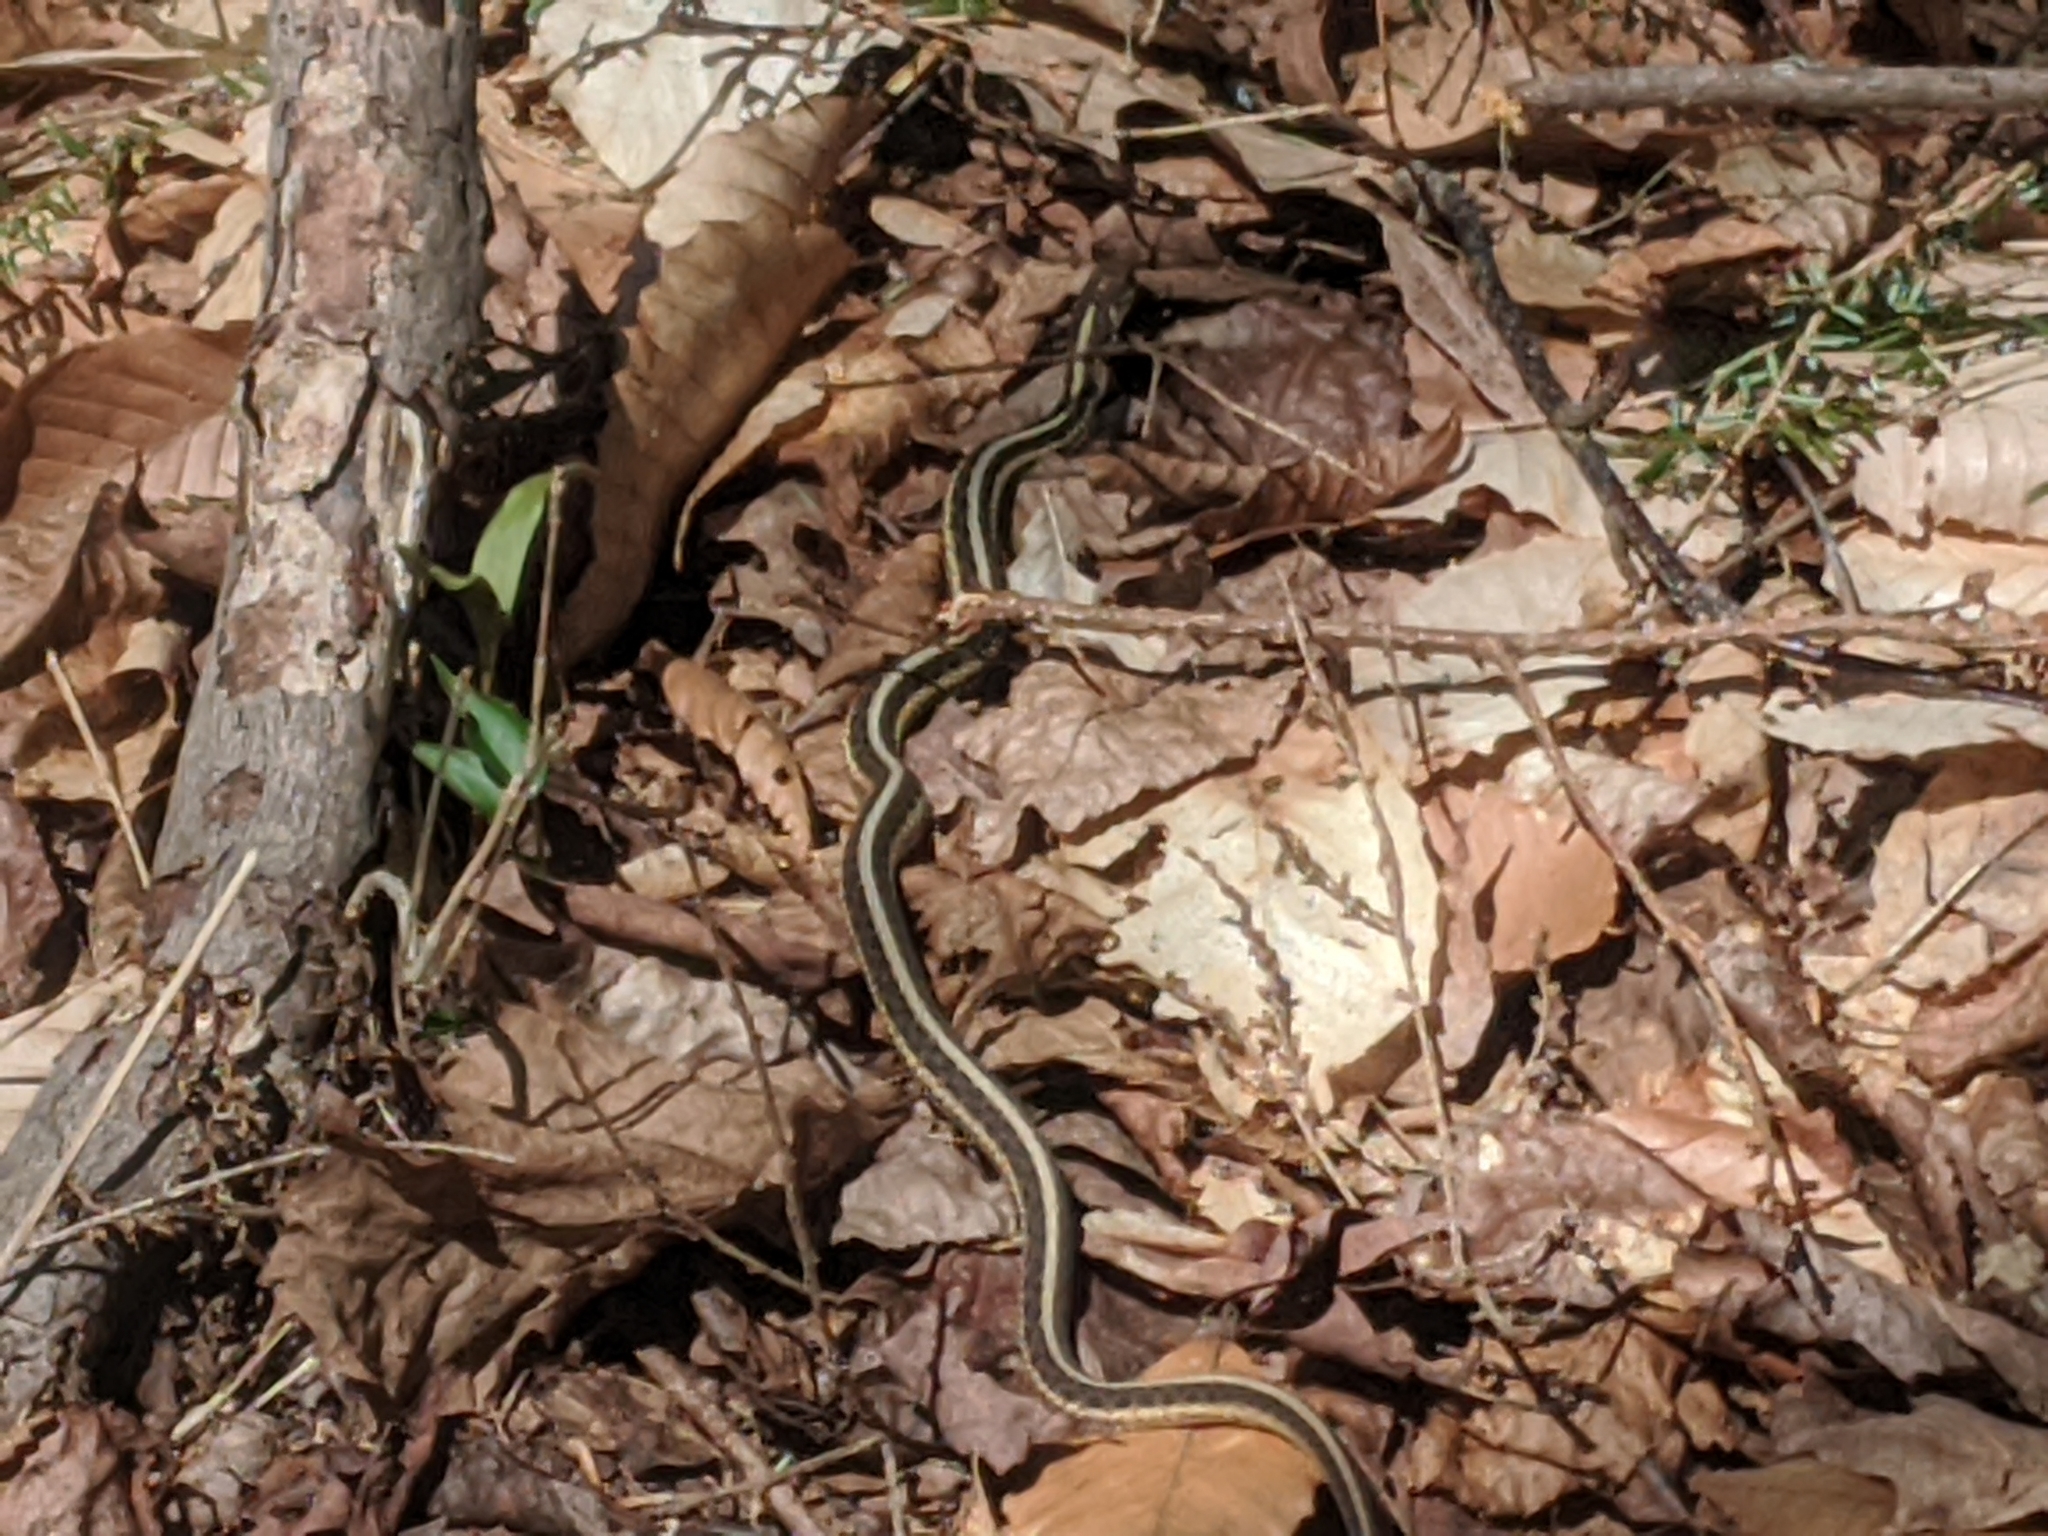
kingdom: Animalia
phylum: Chordata
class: Squamata
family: Colubridae
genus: Thamnophis
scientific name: Thamnophis sirtalis
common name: Common garter snake
